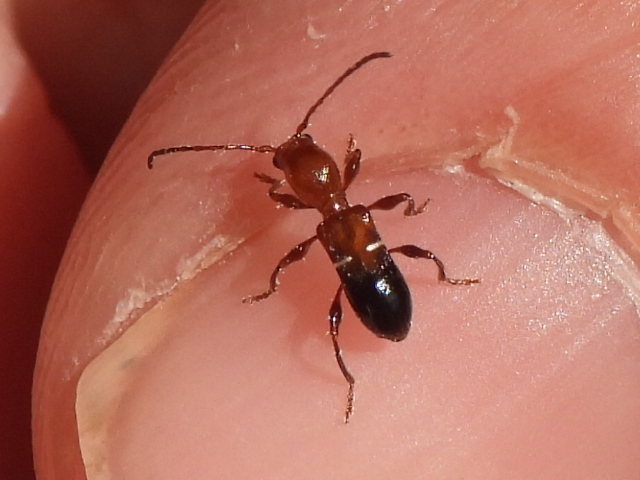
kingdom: Animalia
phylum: Arthropoda
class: Insecta
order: Coleoptera
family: Cerambycidae
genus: Euderces
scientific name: Euderces reichei
